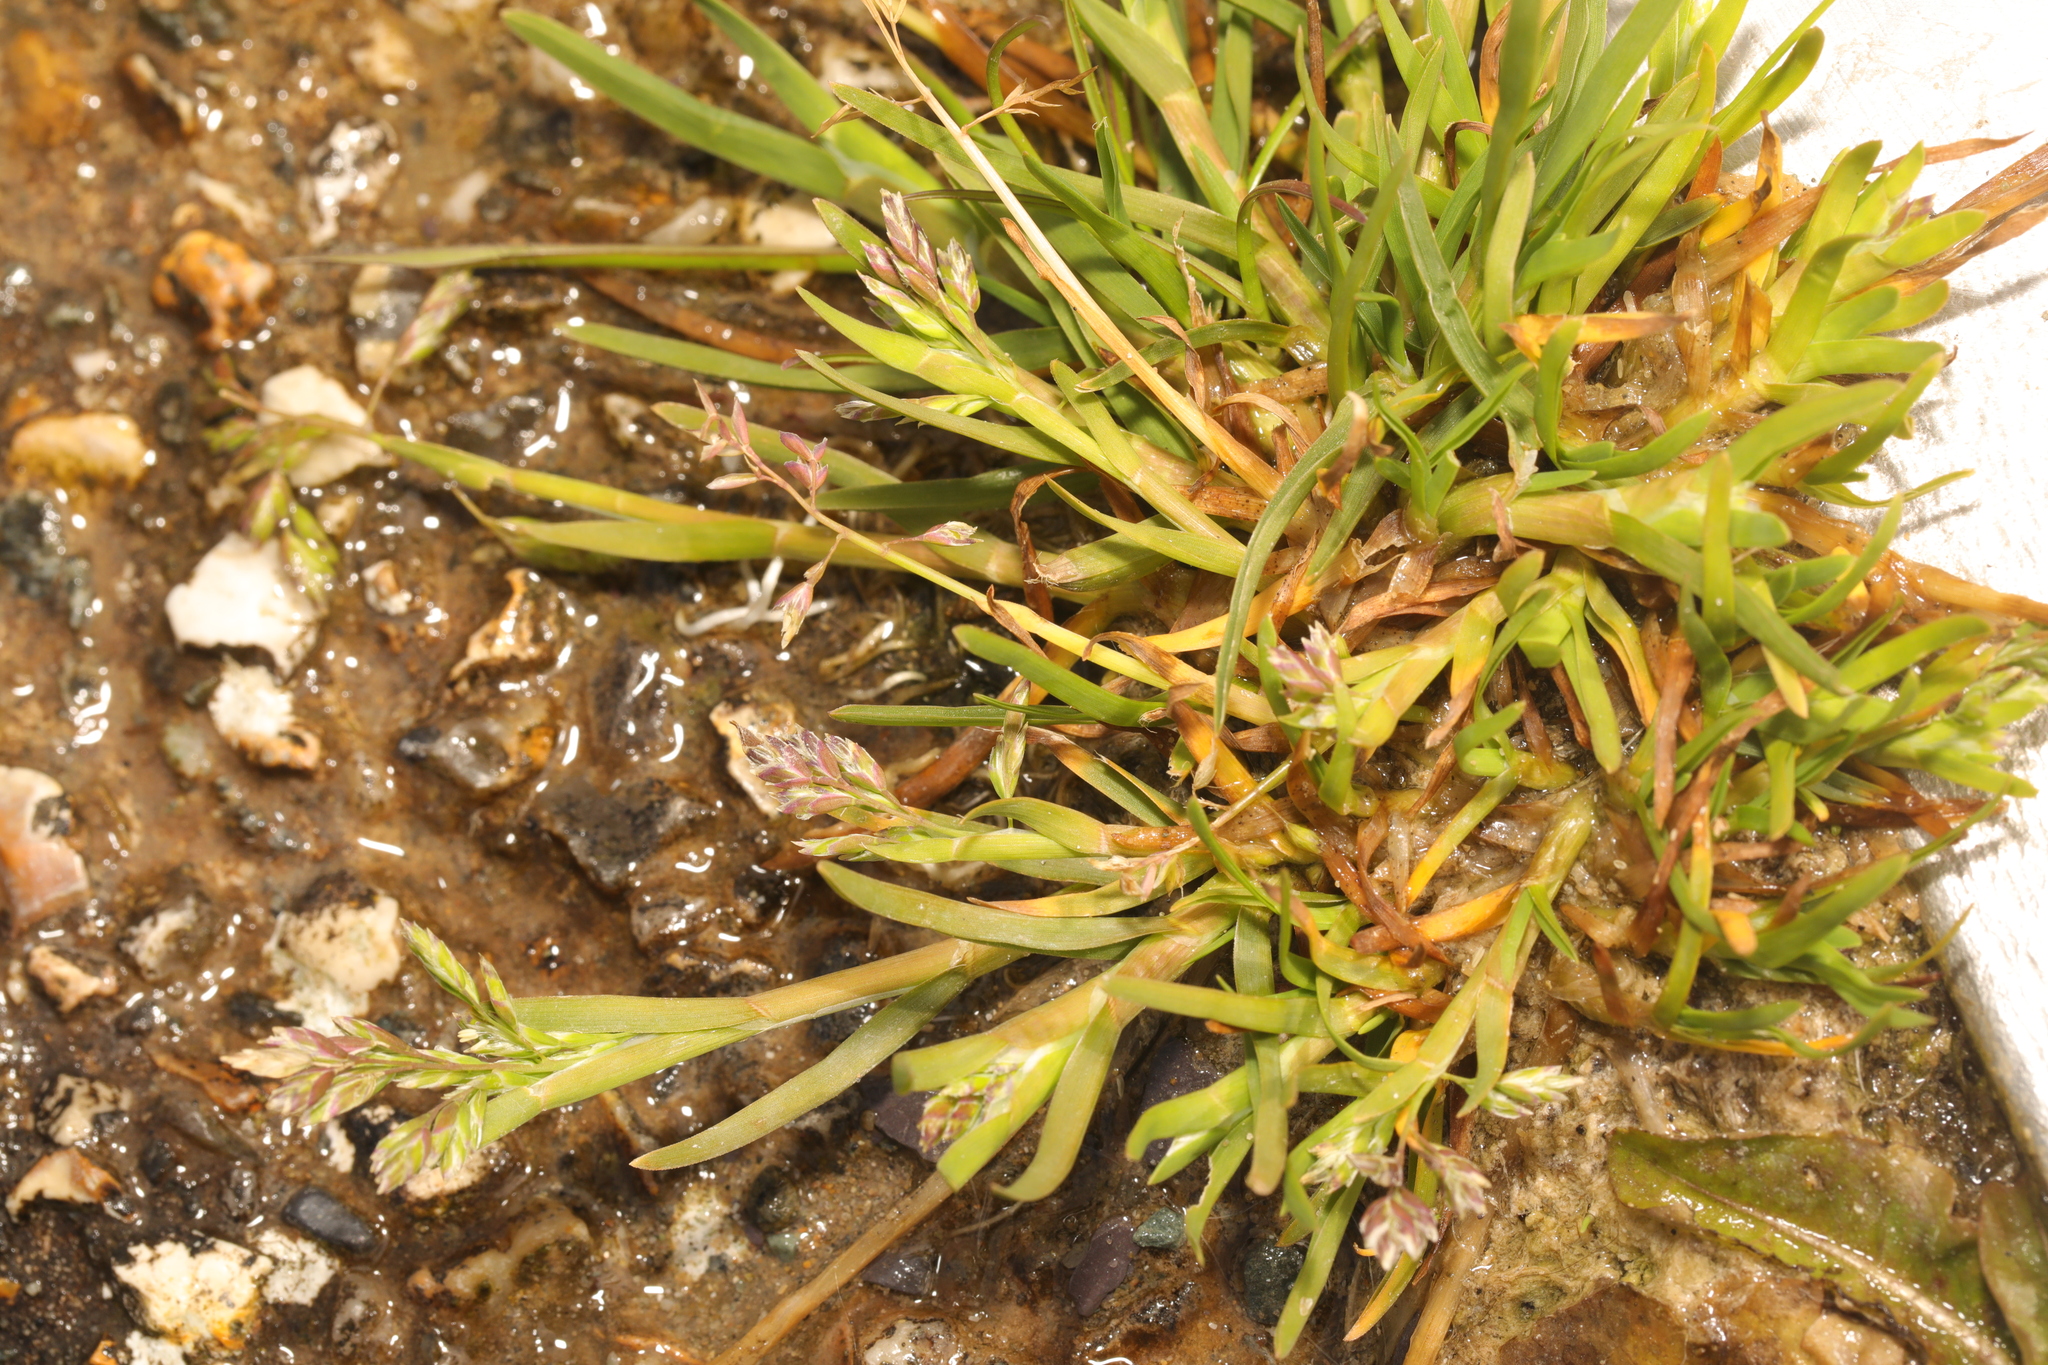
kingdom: Plantae
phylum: Tracheophyta
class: Liliopsida
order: Poales
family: Poaceae
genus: Poa
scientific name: Poa annua
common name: Annual bluegrass
